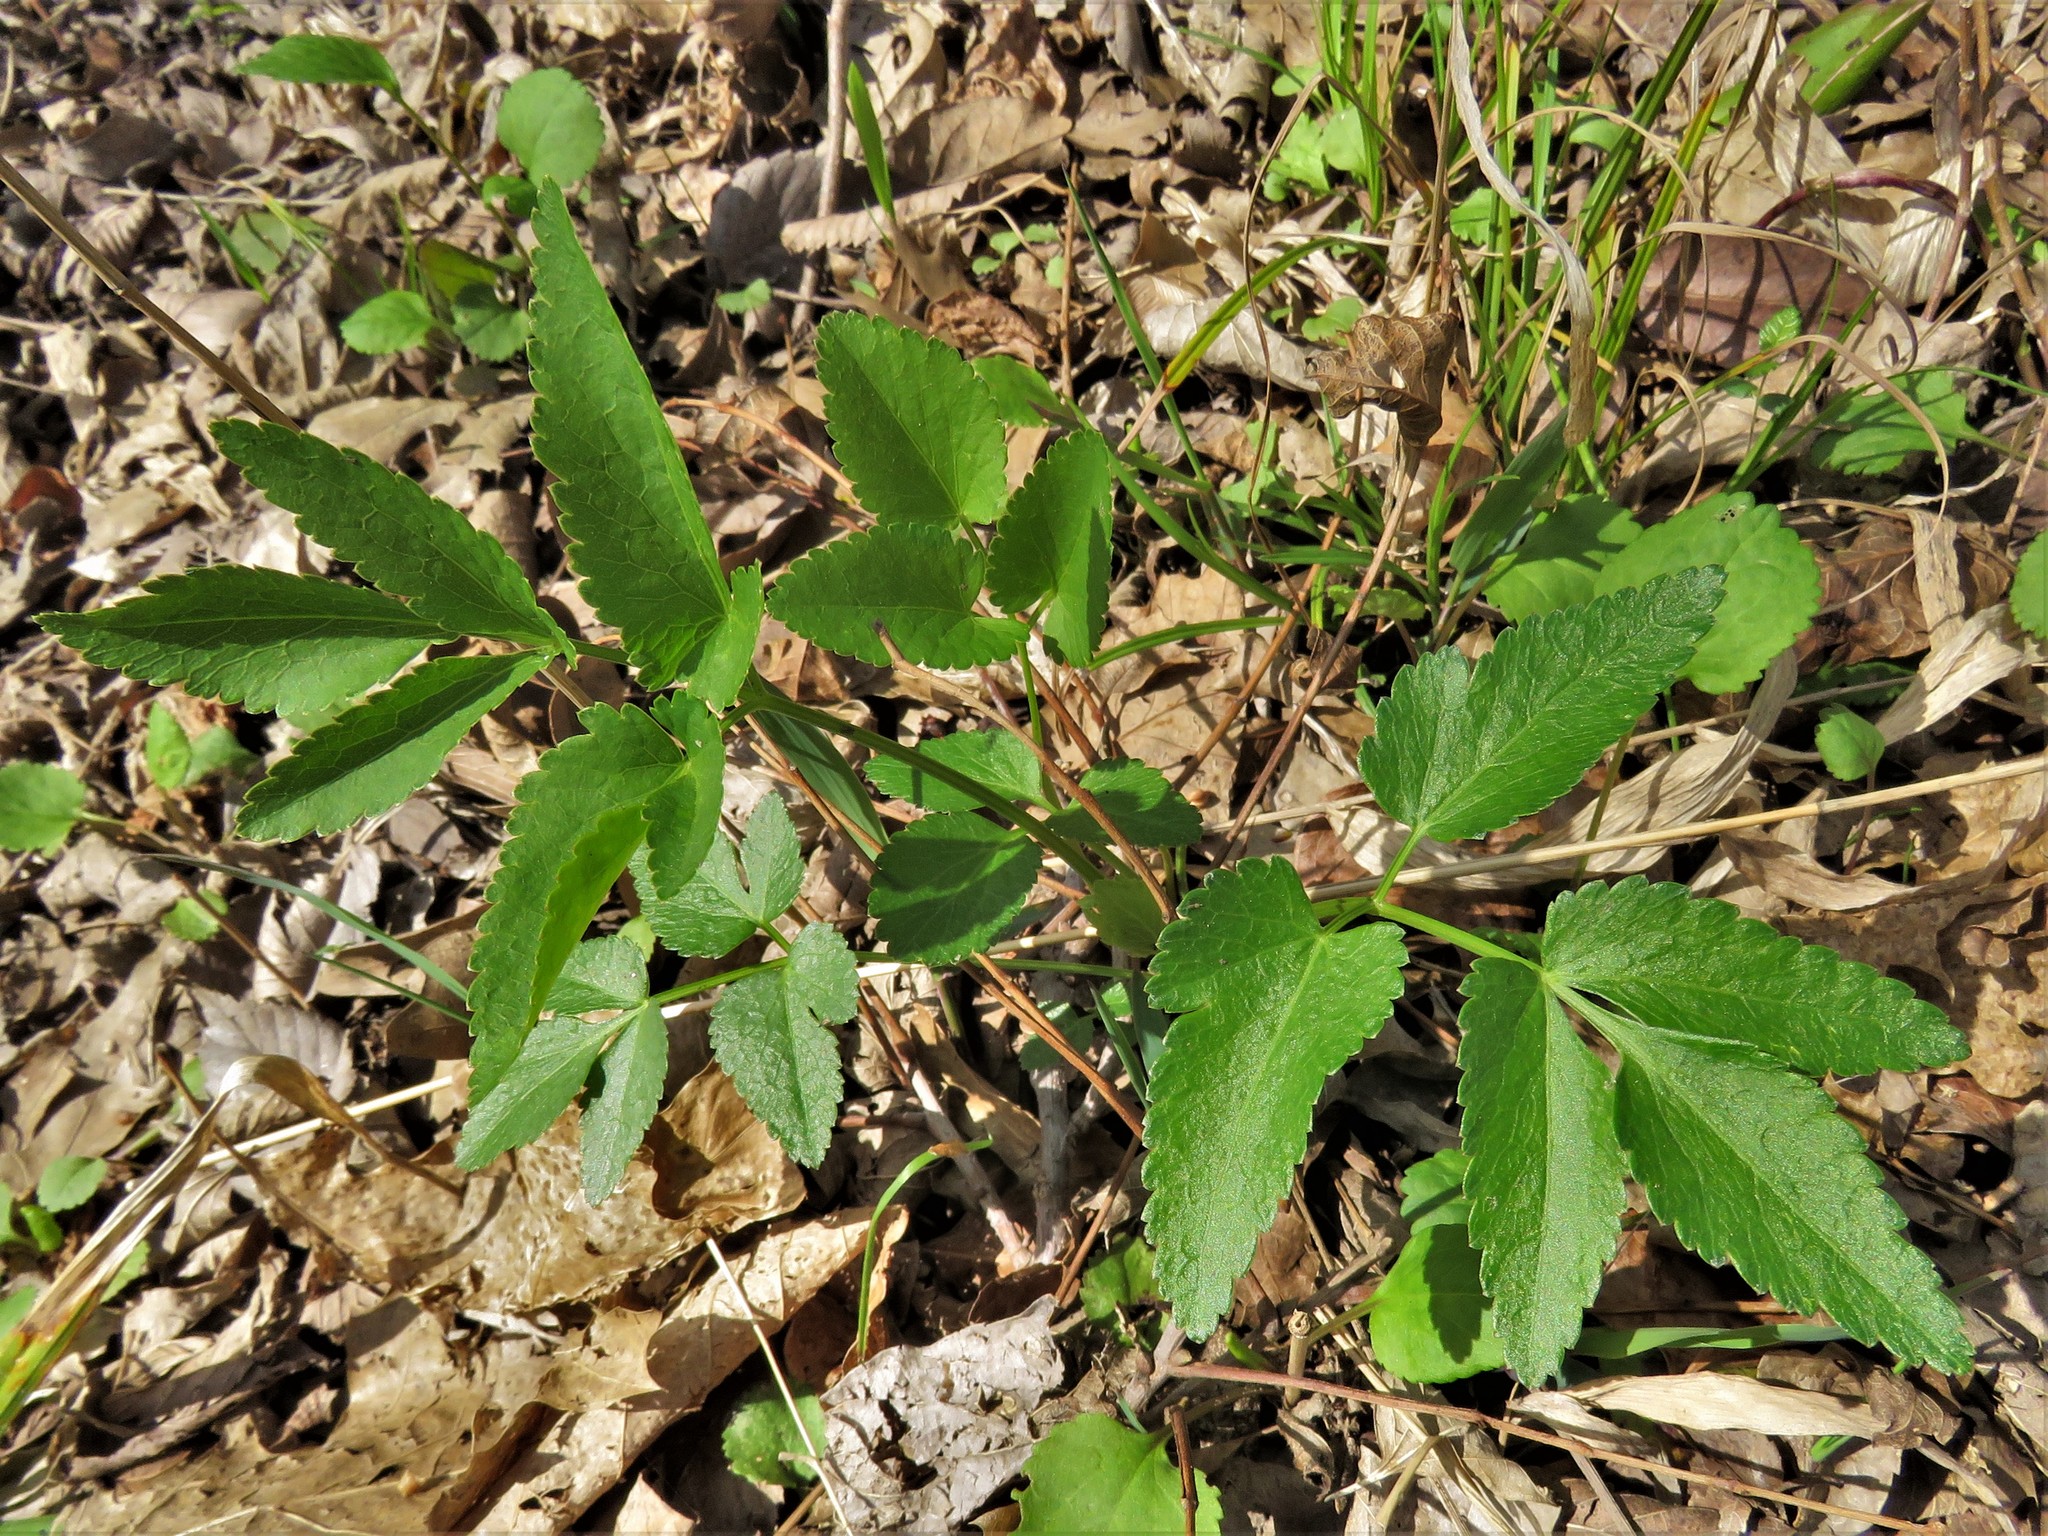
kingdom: Plantae
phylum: Tracheophyta
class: Magnoliopsida
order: Apiales
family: Apiaceae
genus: Zizia
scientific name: Zizia aurea
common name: Golden alexanders
